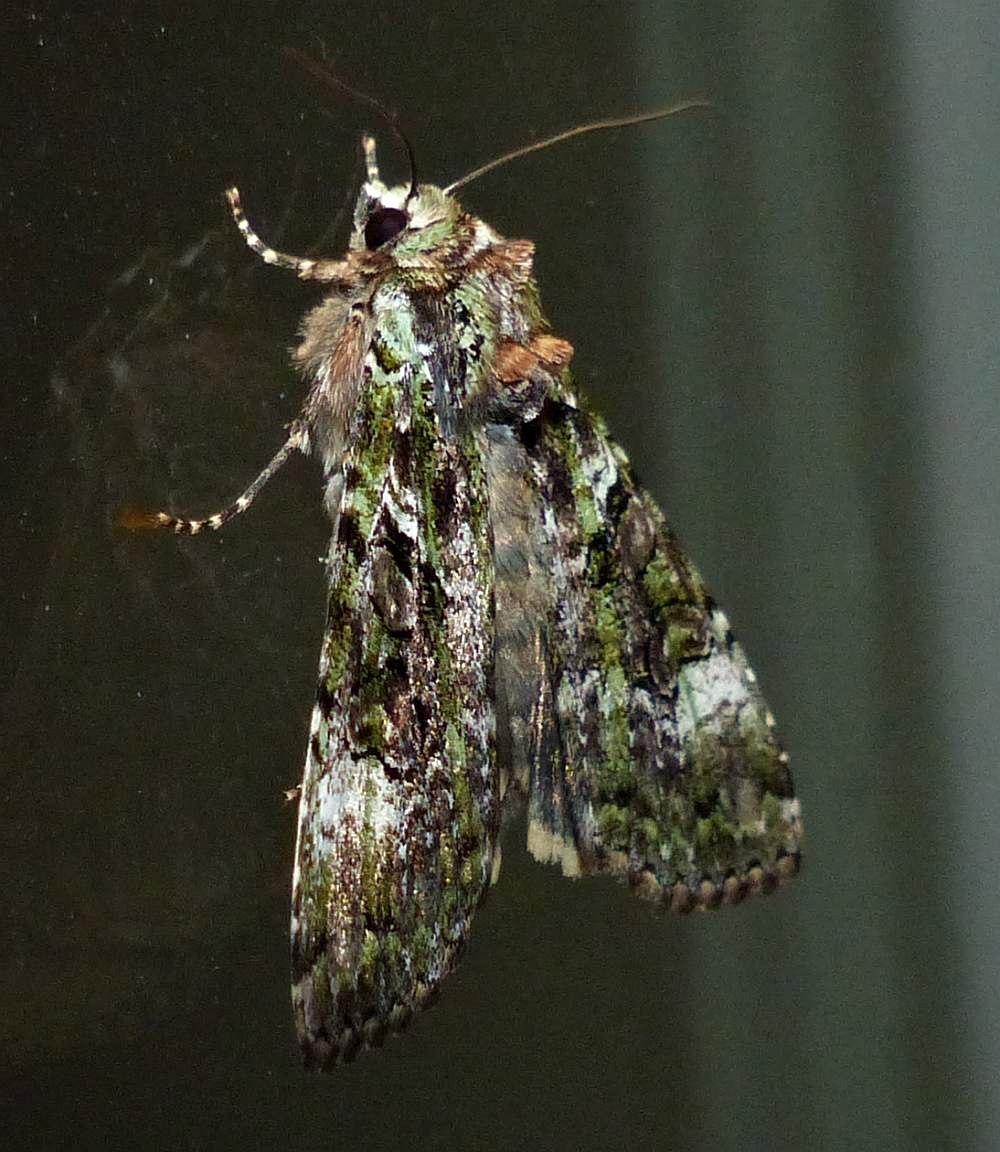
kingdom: Animalia
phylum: Arthropoda
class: Insecta
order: Lepidoptera
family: Noctuidae
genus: Anaplectoides
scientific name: Anaplectoides prasina
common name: Green arches
